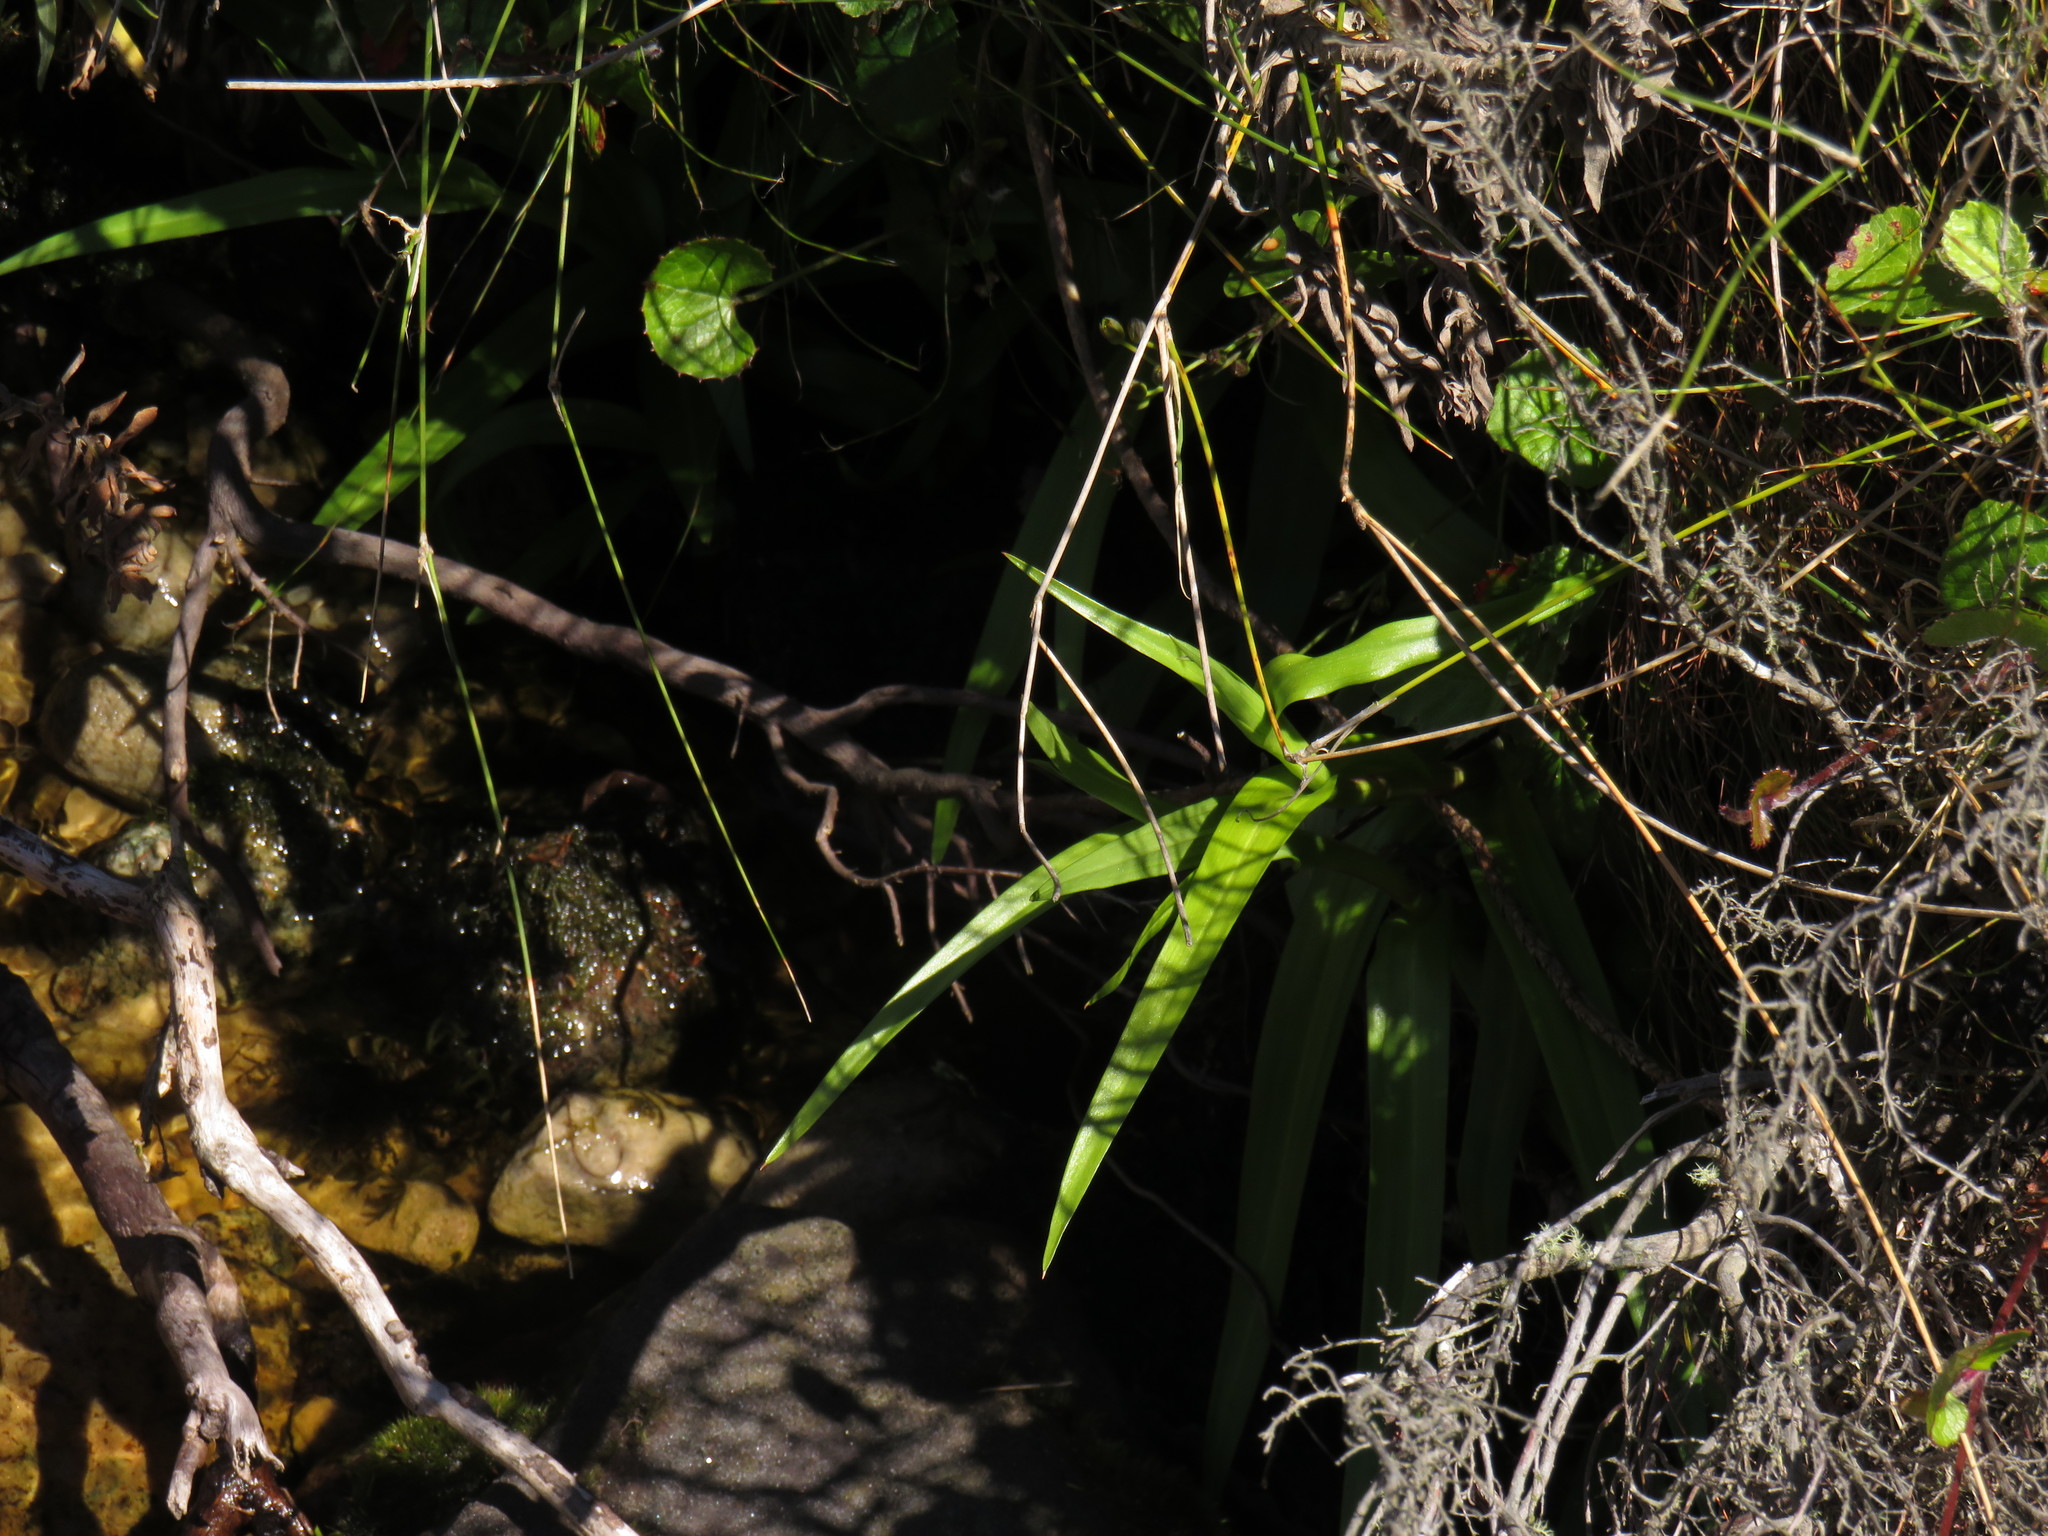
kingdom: Plantae
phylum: Tracheophyta
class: Liliopsida
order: Asparagales
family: Orchidaceae
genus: Disa
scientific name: Disa uniflora
